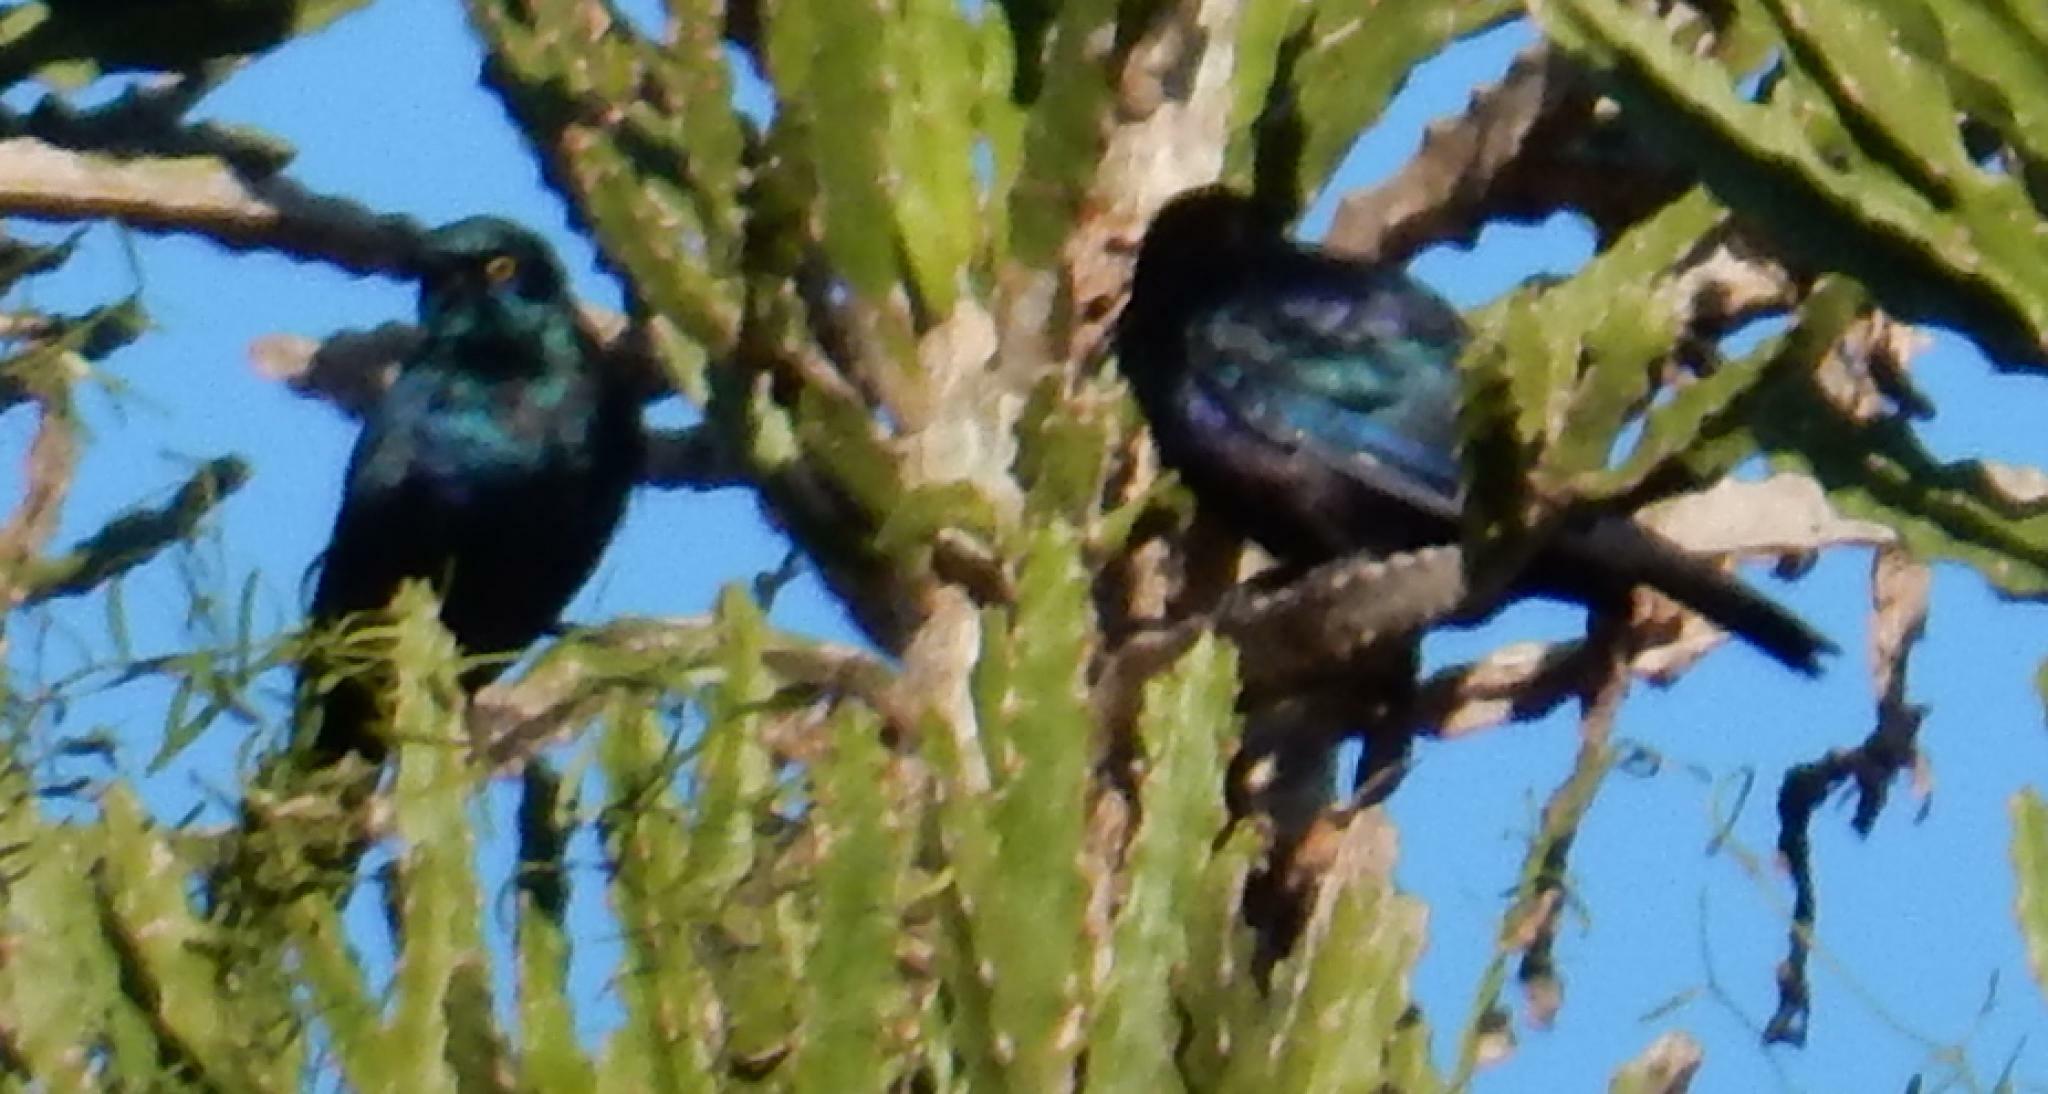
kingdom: Animalia
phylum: Chordata
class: Aves
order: Passeriformes
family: Sturnidae
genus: Lamprotornis
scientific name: Lamprotornis nitens
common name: Cape starling
